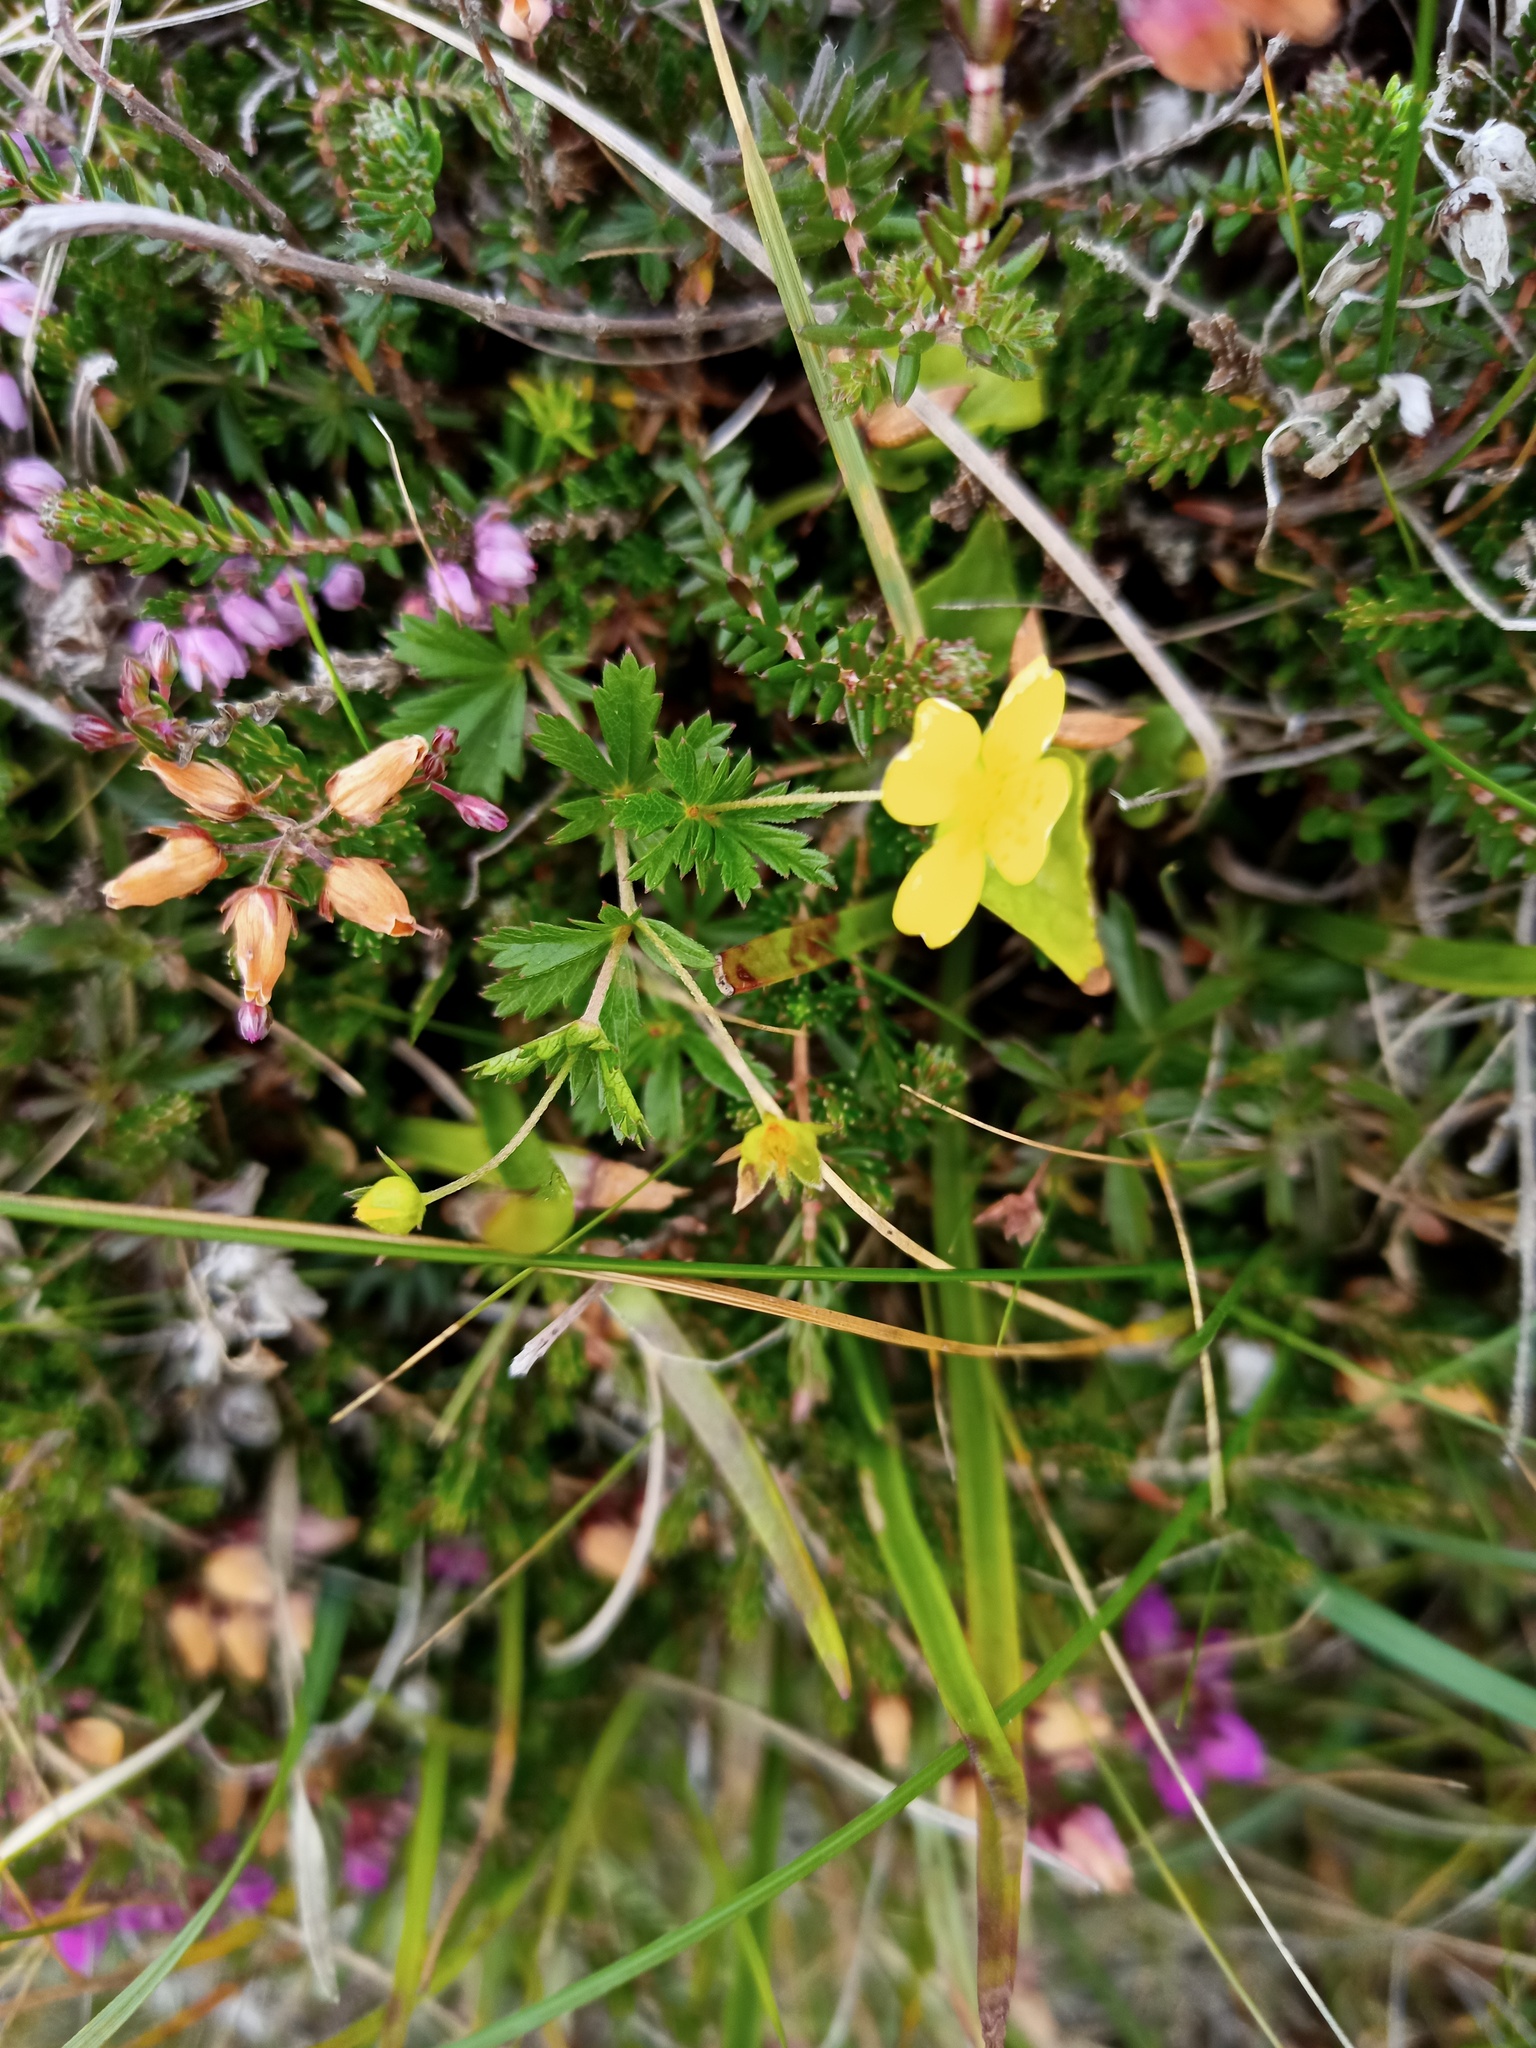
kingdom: Plantae
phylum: Tracheophyta
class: Magnoliopsida
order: Rosales
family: Rosaceae
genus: Potentilla
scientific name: Potentilla erecta
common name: Tormentil
